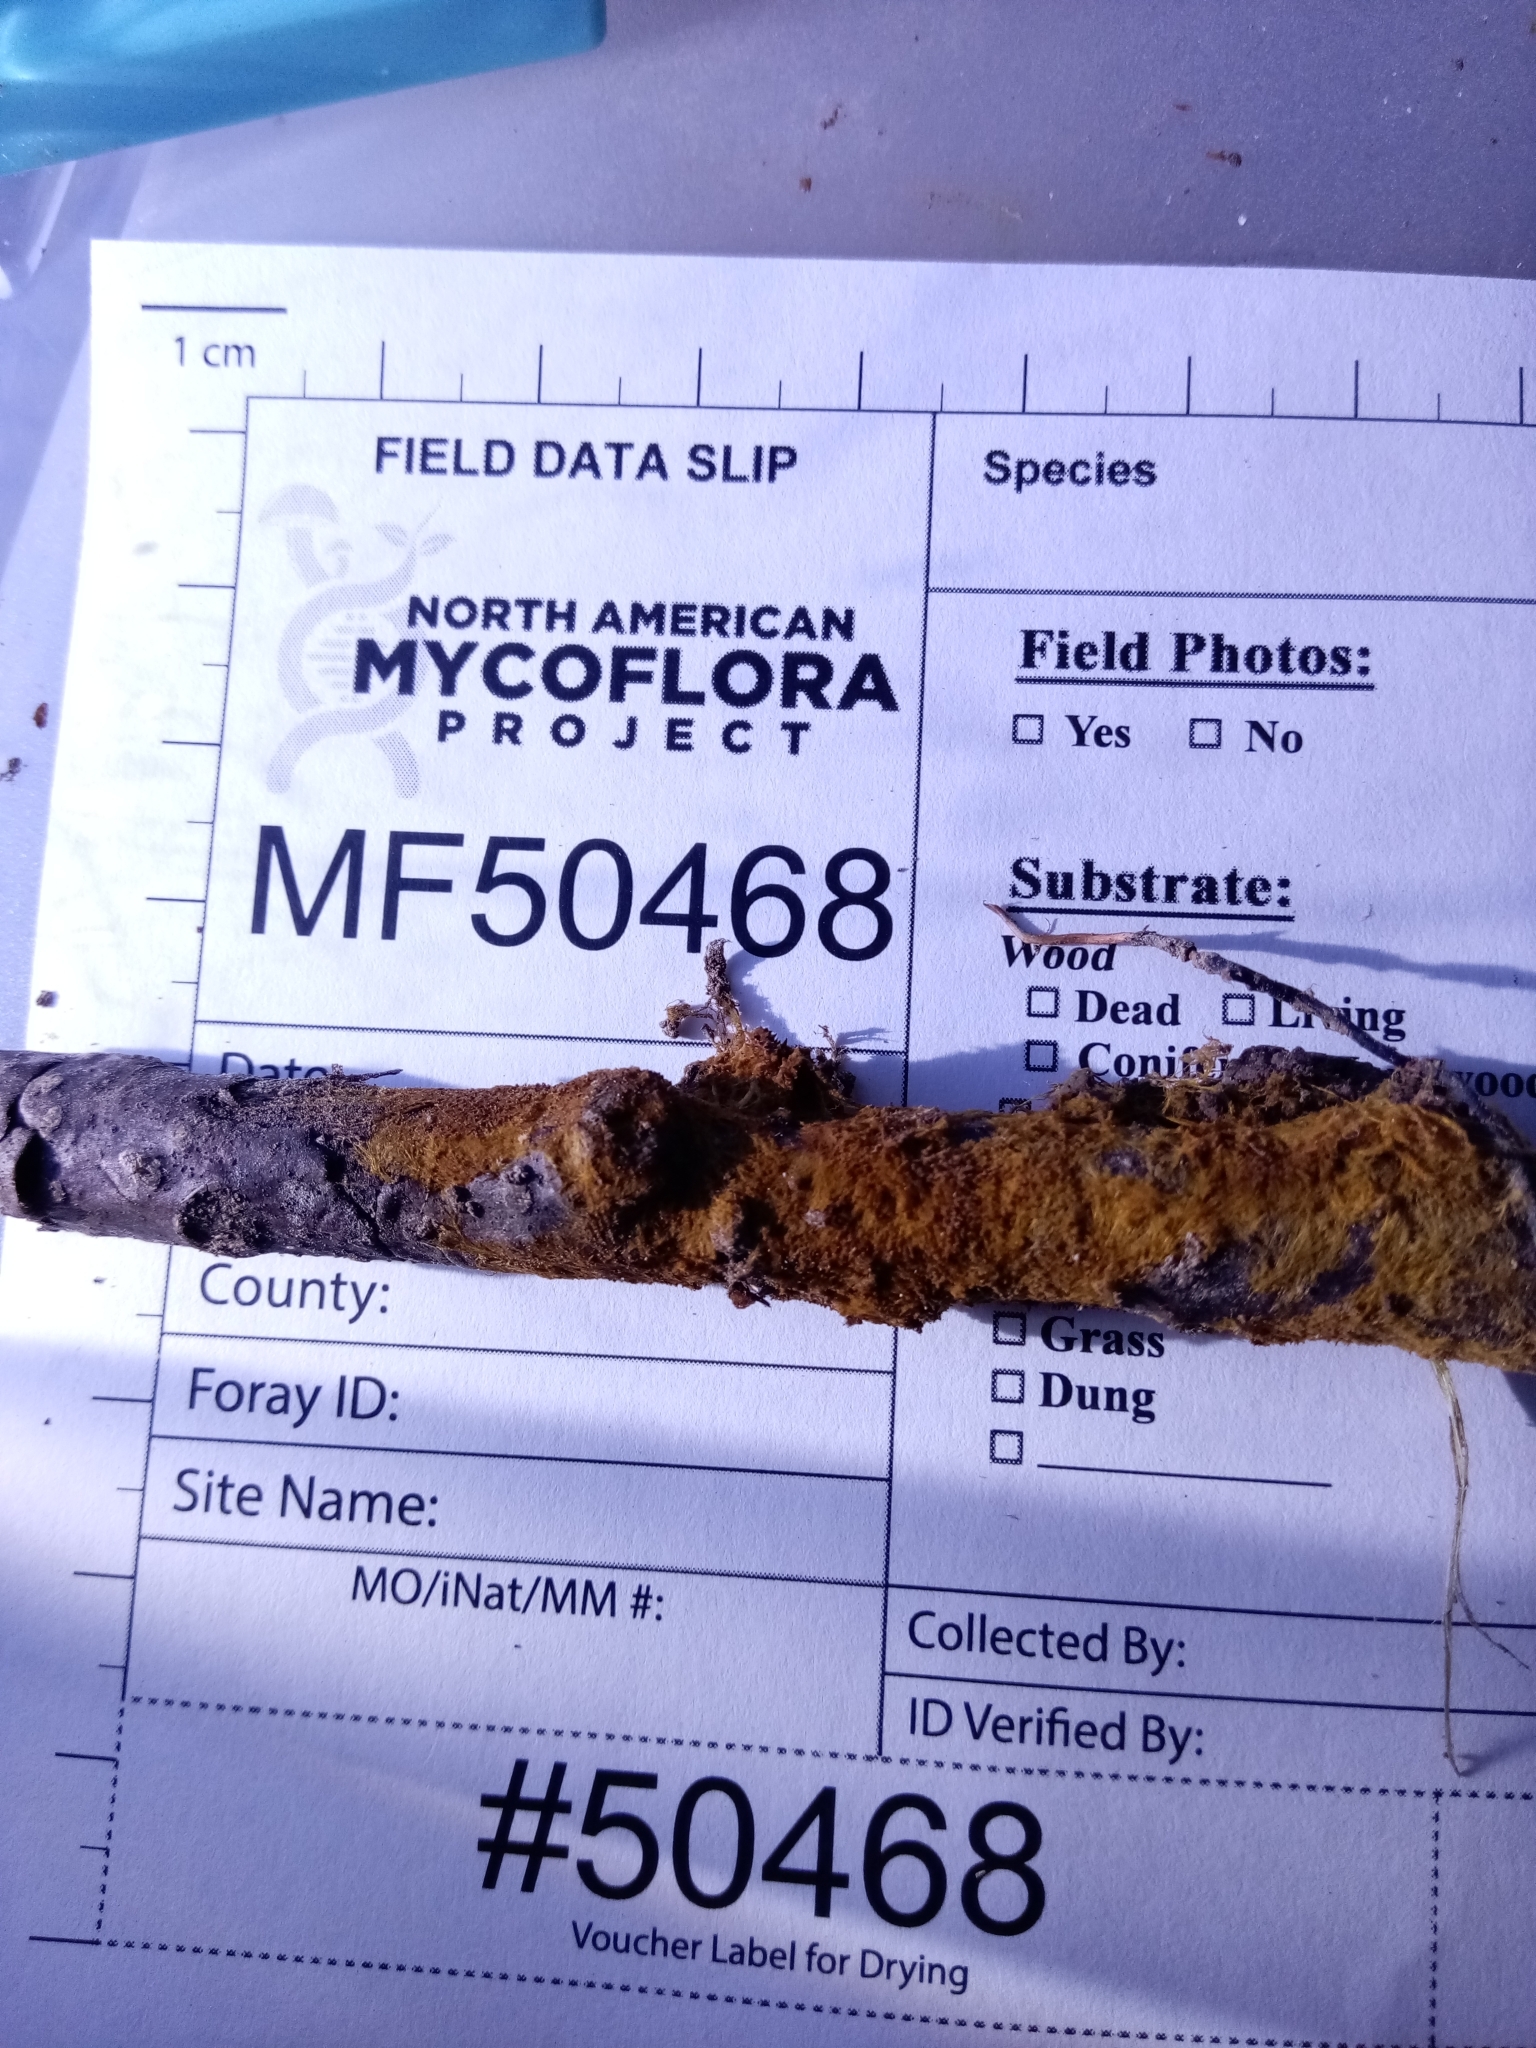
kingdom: Fungi
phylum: Basidiomycota
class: Agaricomycetes
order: Thelephorales
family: Thelephoraceae
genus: Odontia
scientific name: Odontia ferruginea
